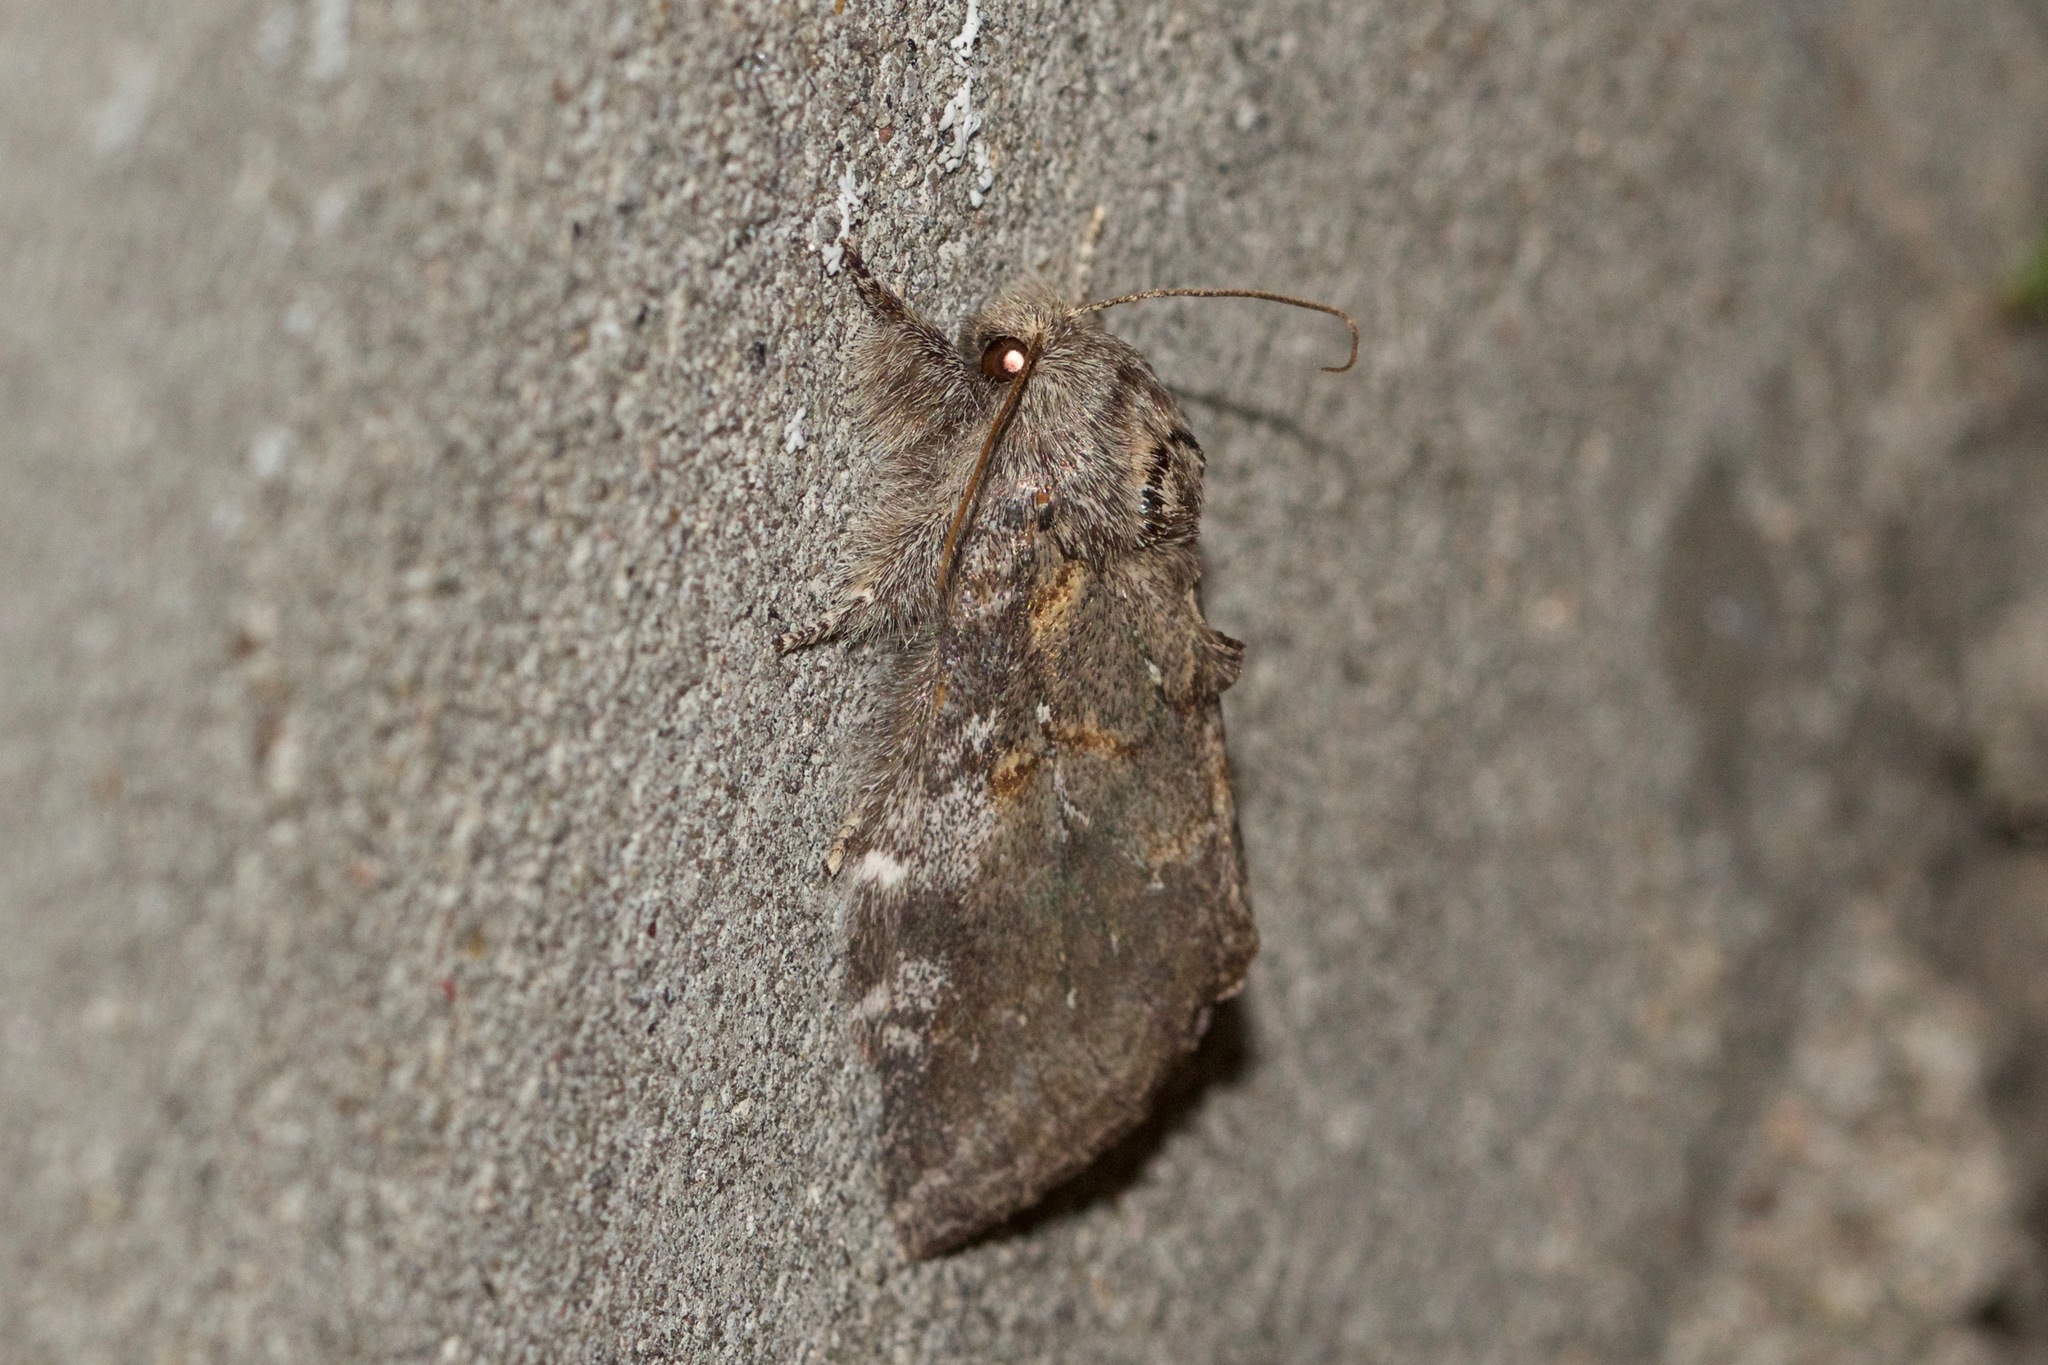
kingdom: Animalia
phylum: Arthropoda
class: Insecta
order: Lepidoptera
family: Notodontidae
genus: Peridea
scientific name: Peridea angulosa
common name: Angulose prominent
